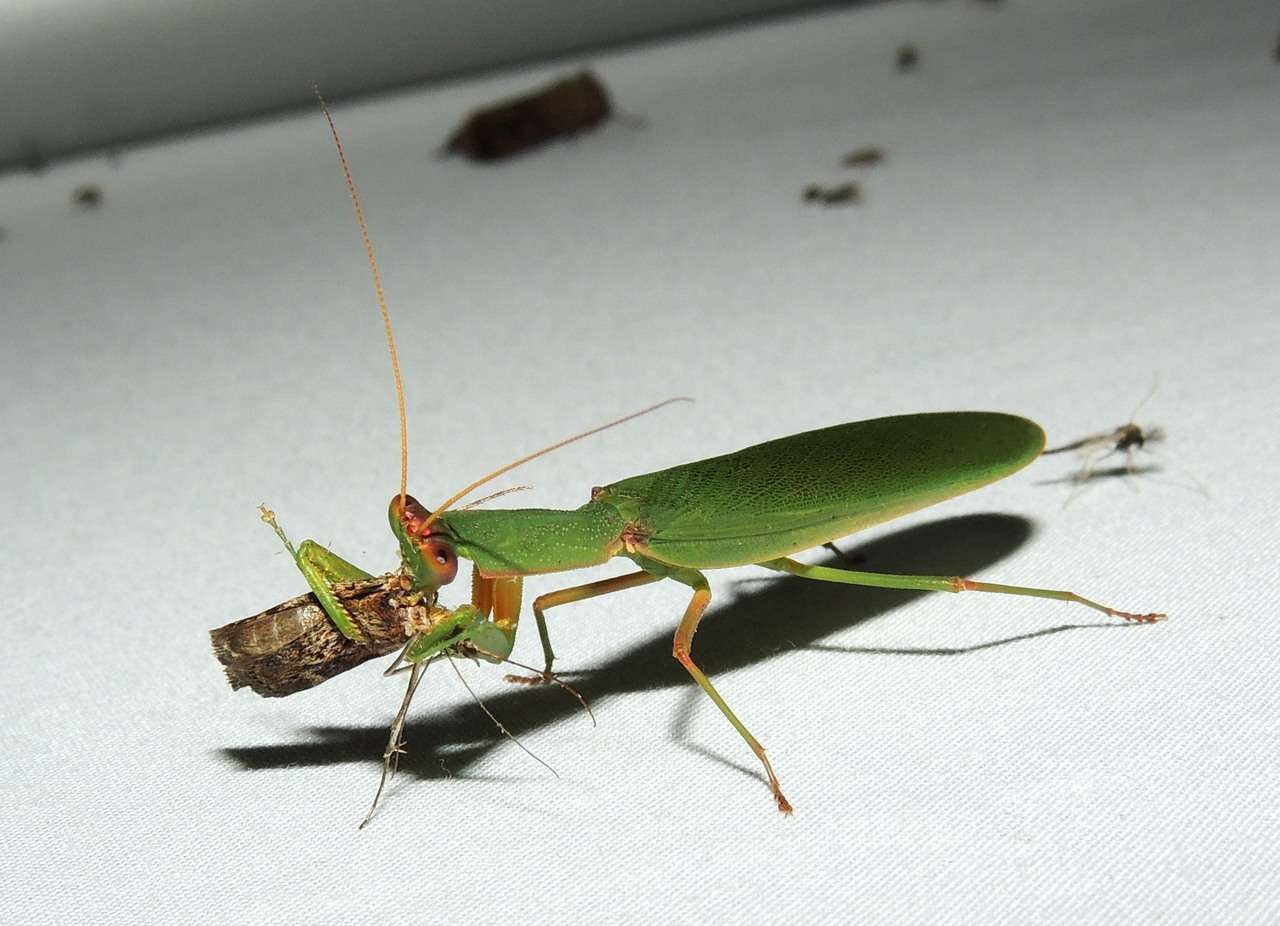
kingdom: Animalia
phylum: Arthropoda
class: Insecta
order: Mantodea
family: Mantidae
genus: Orthodera
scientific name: Orthodera ministralis
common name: Mantis
